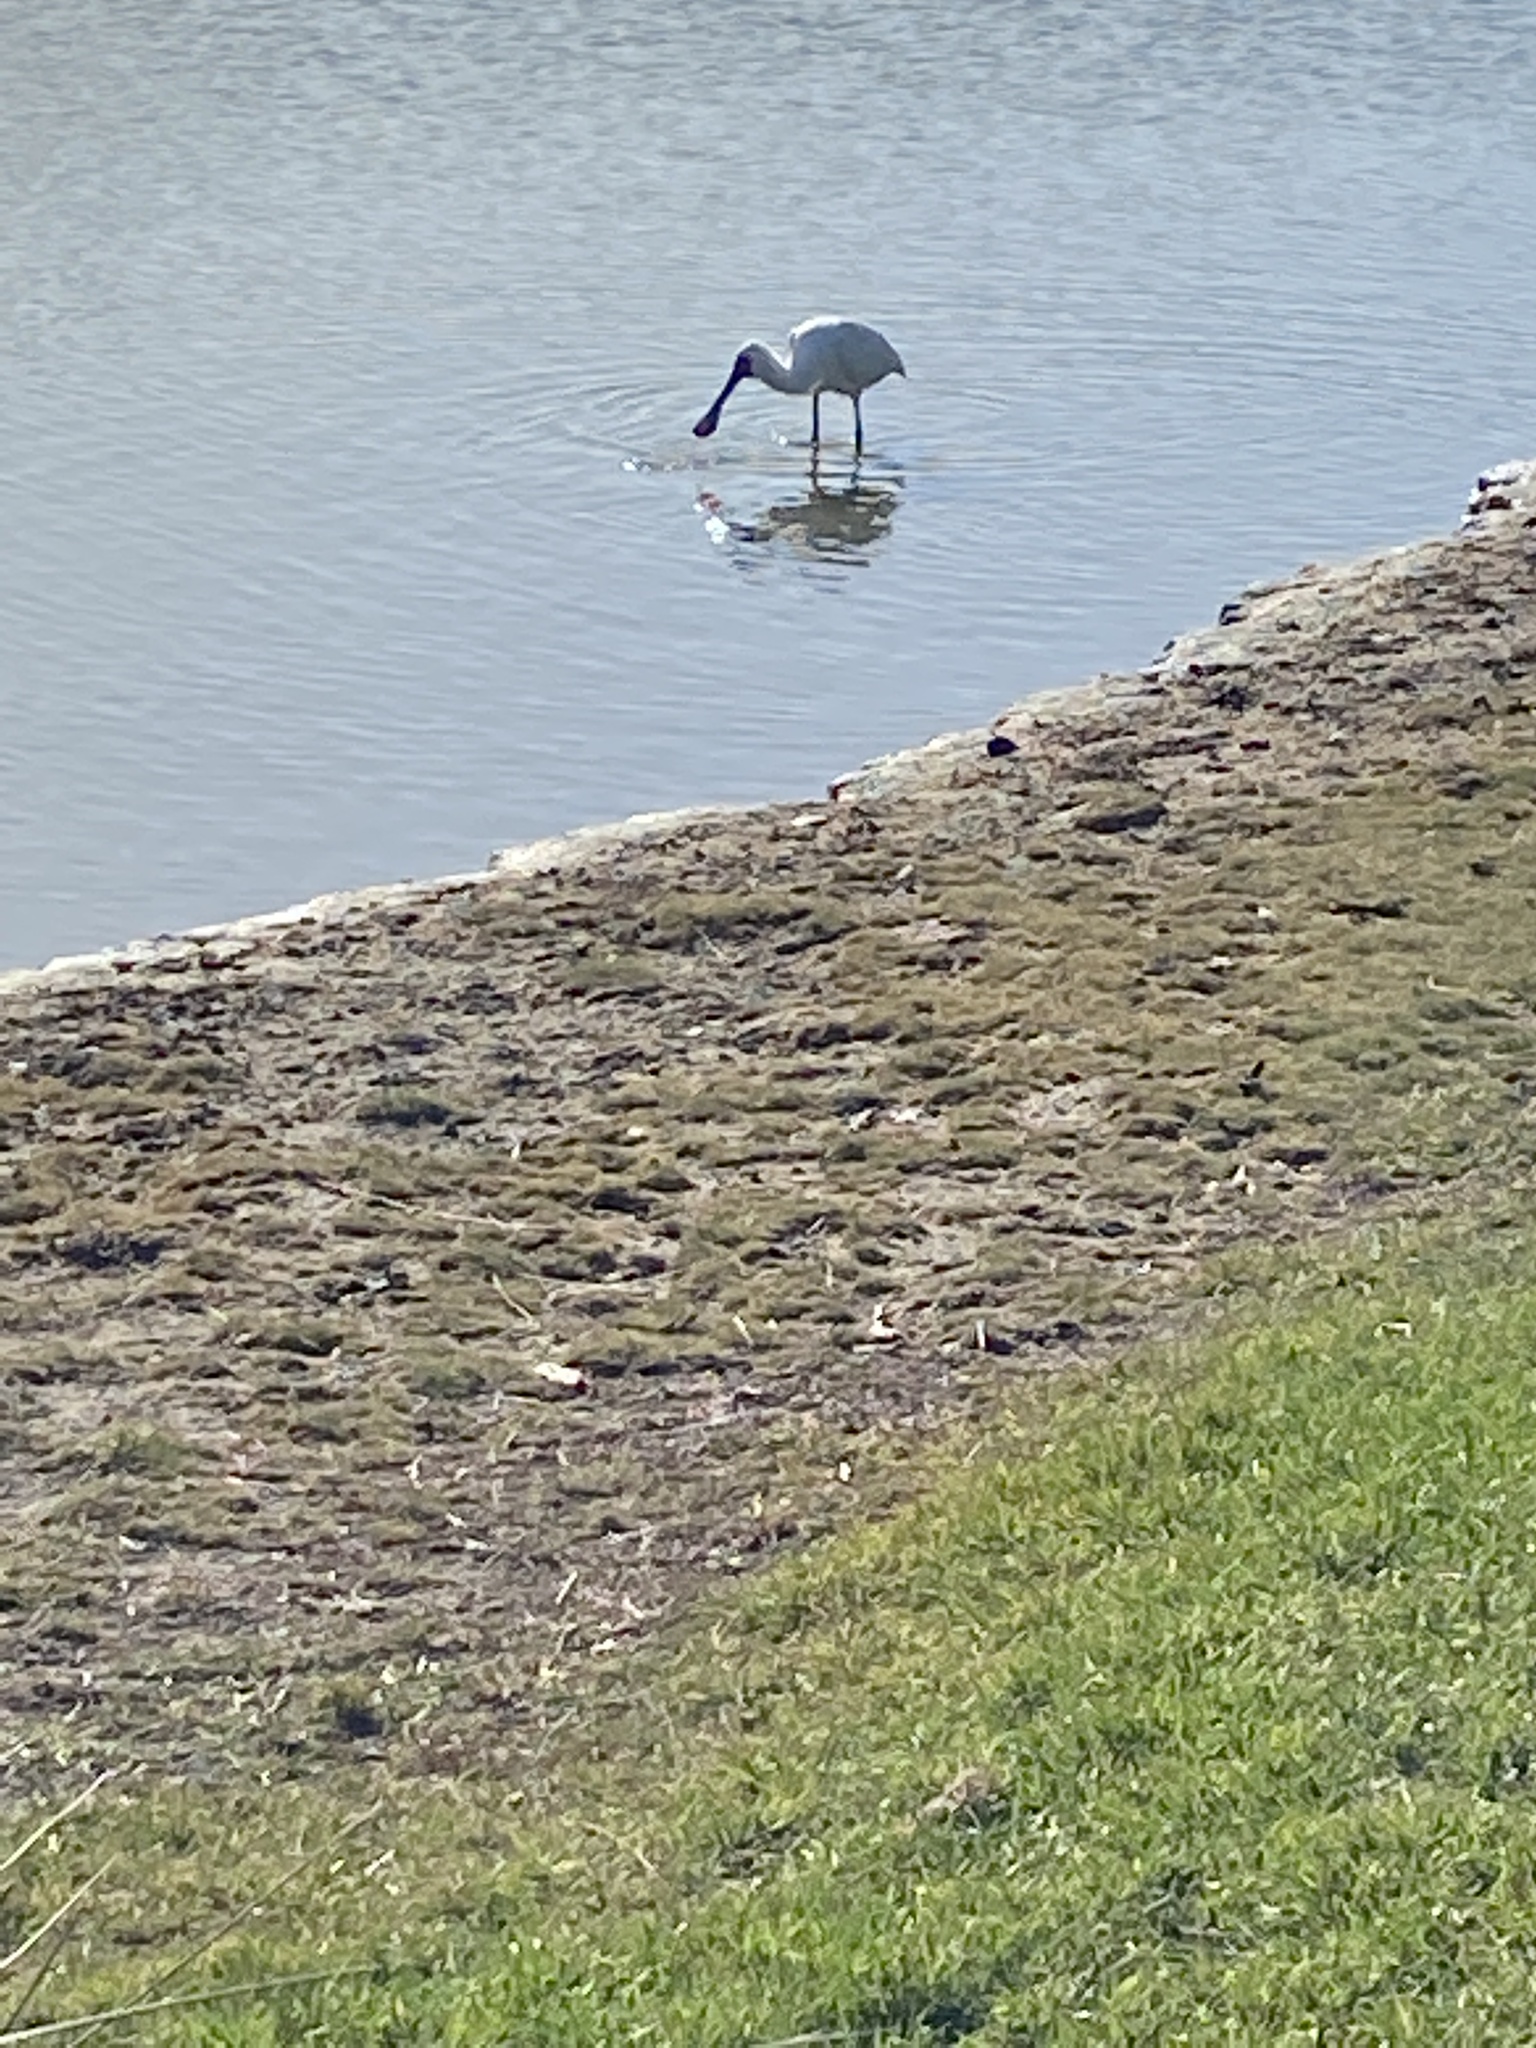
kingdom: Animalia
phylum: Chordata
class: Aves
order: Pelecaniformes
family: Threskiornithidae
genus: Platalea
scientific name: Platalea regia
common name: Royal spoonbill
